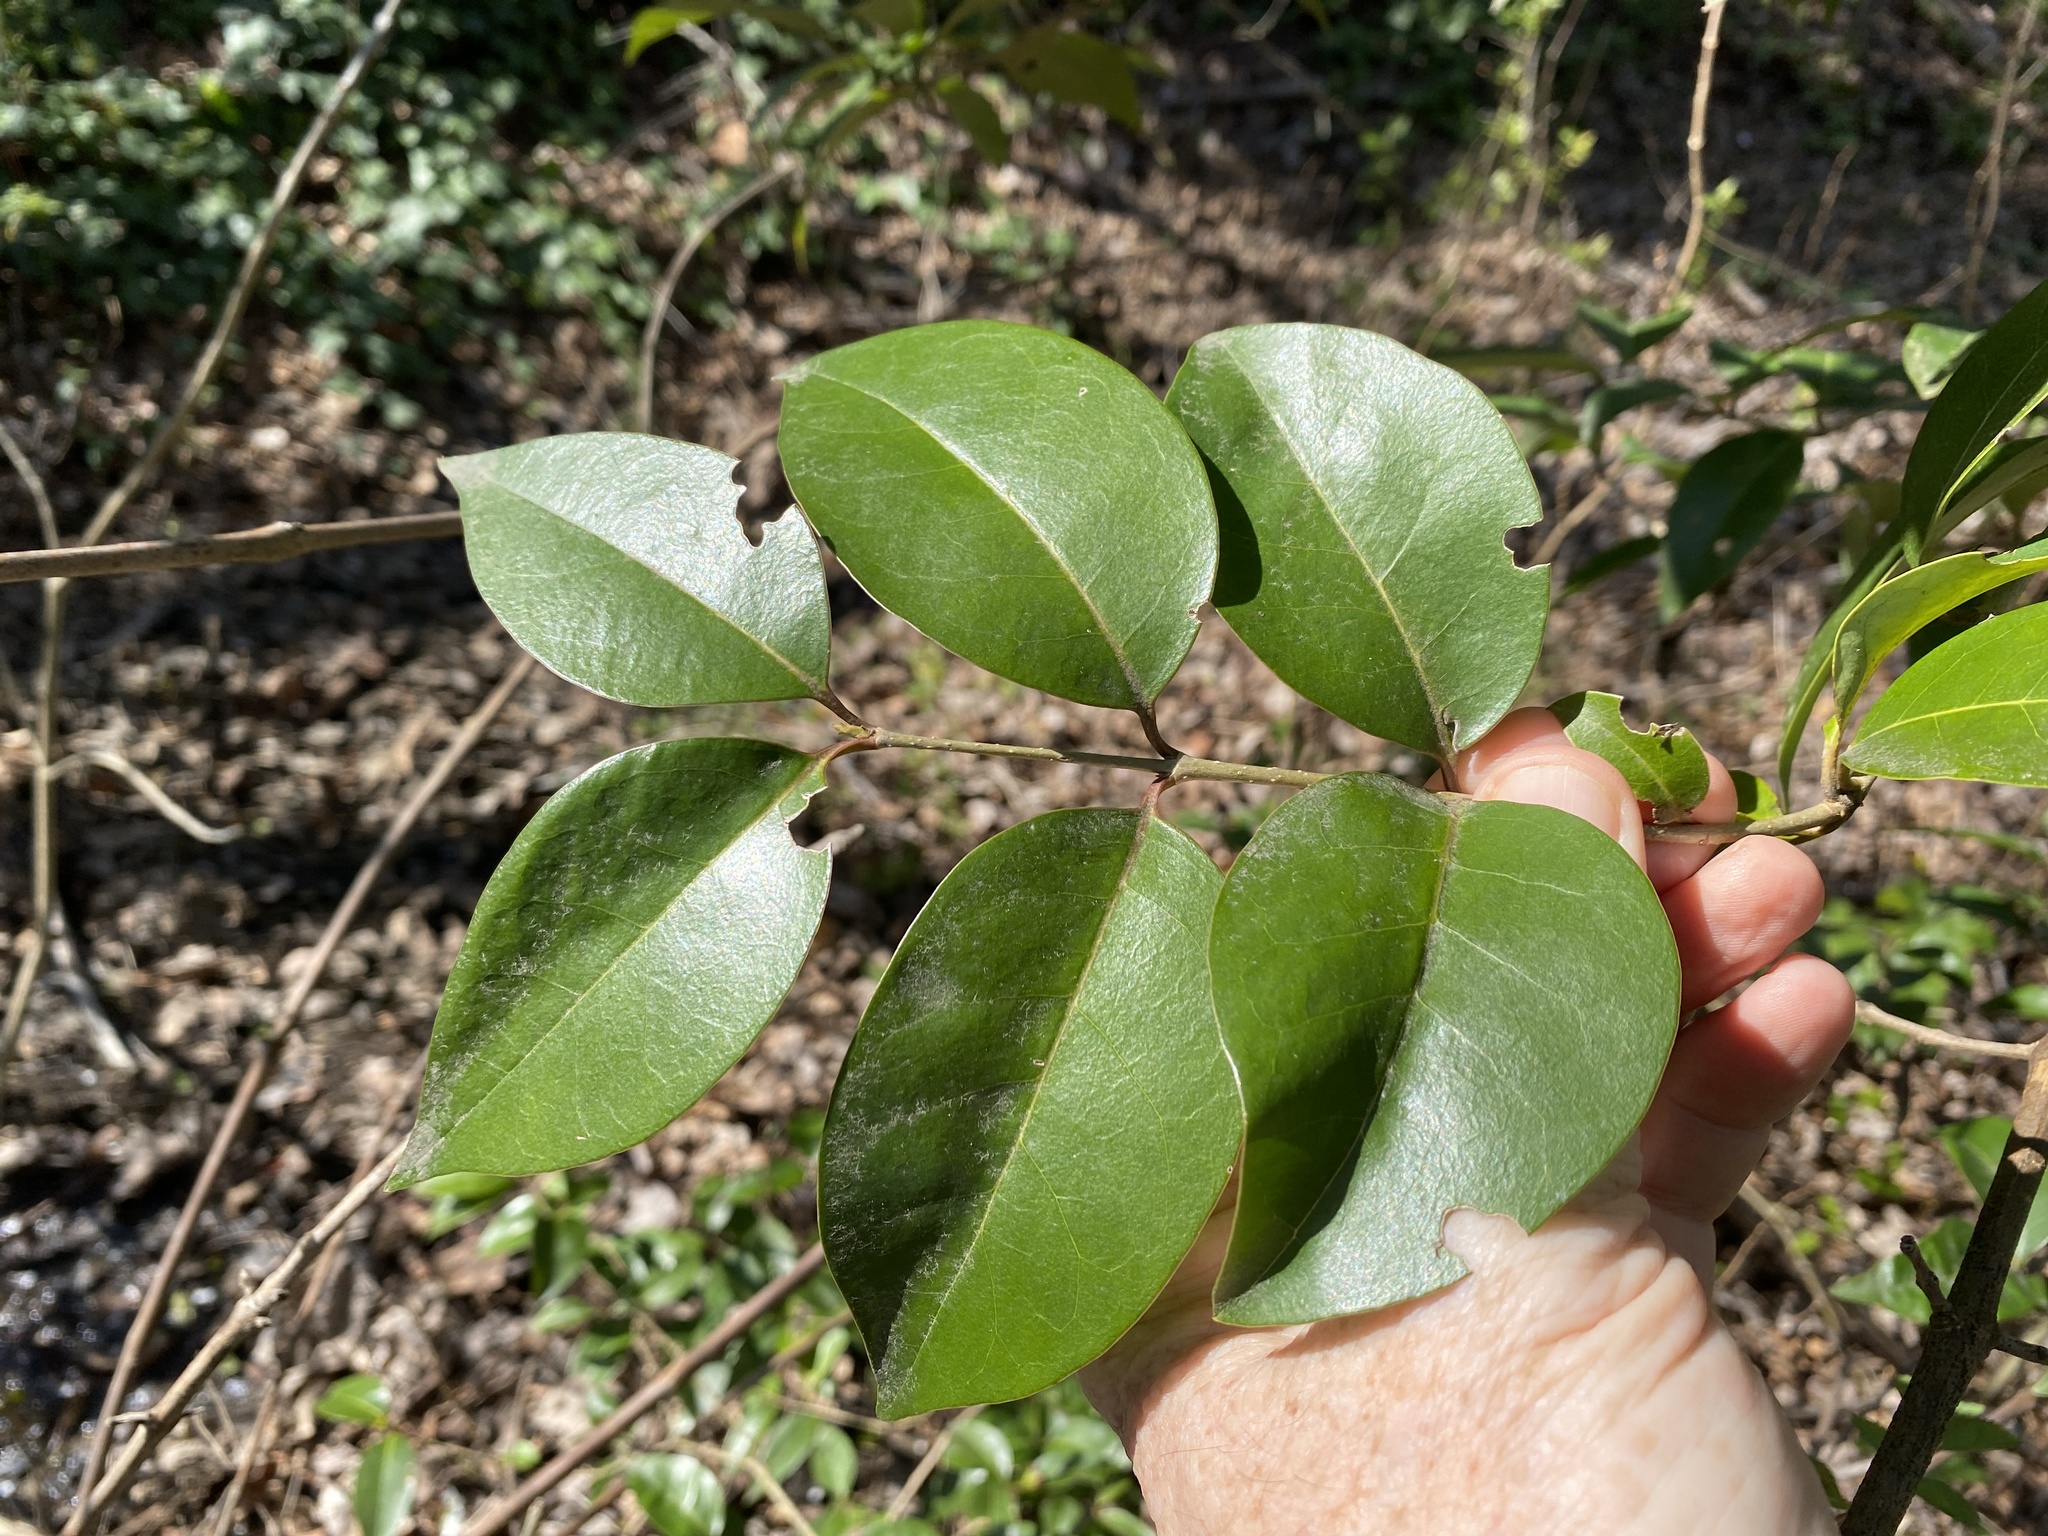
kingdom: Plantae
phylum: Tracheophyta
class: Magnoliopsida
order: Lamiales
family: Oleaceae
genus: Ligustrum
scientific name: Ligustrum lucidum
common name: Glossy privet
